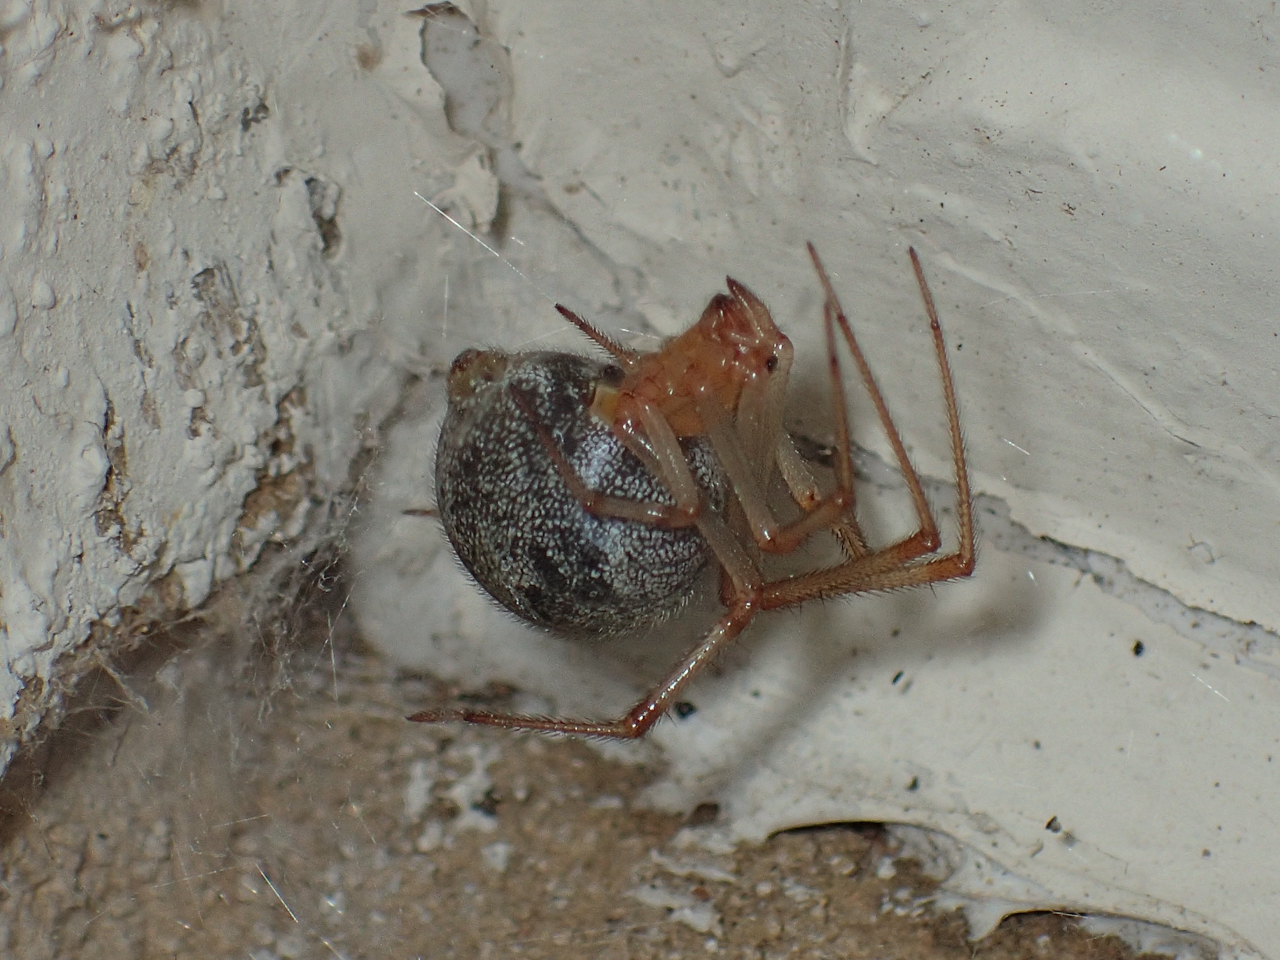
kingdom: Animalia
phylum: Arthropoda
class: Arachnida
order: Araneae
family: Theridiidae
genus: Parasteatoda
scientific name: Parasteatoda tepidariorum
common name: Common house spider
